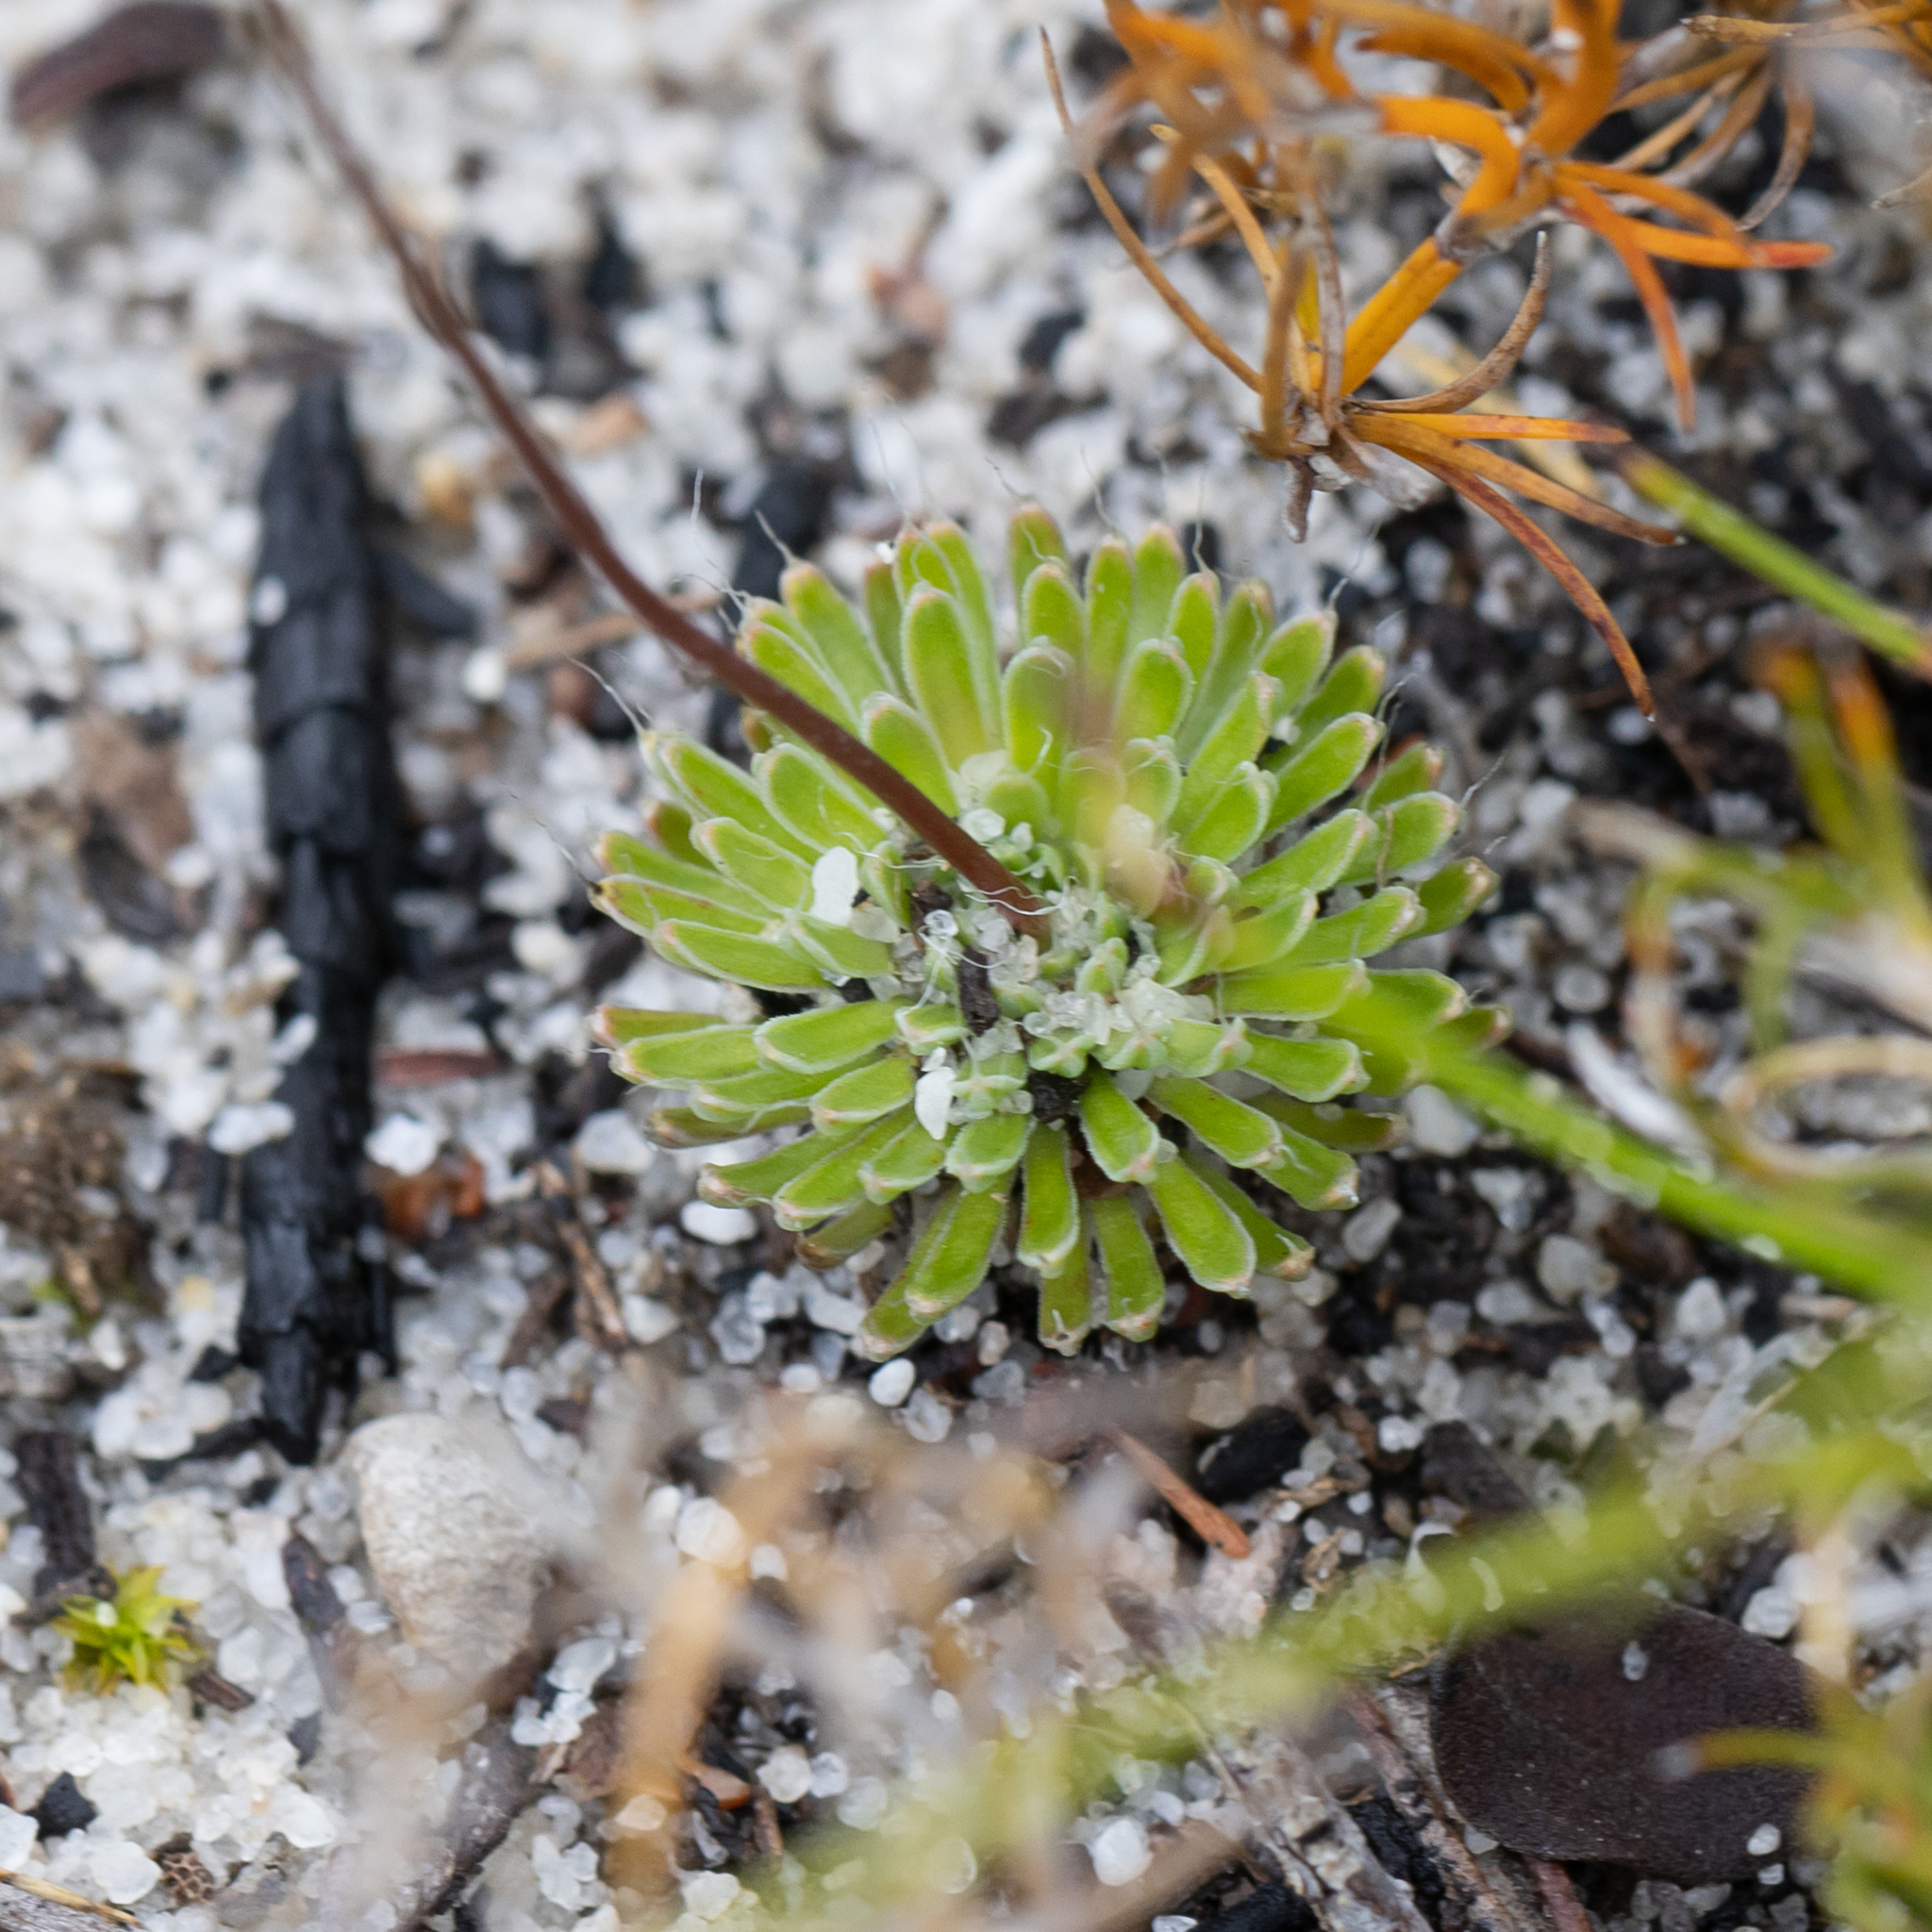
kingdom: Plantae
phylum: Tracheophyta
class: Magnoliopsida
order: Asterales
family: Stylidiaceae
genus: Stylidium
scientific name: Stylidium piliferum
